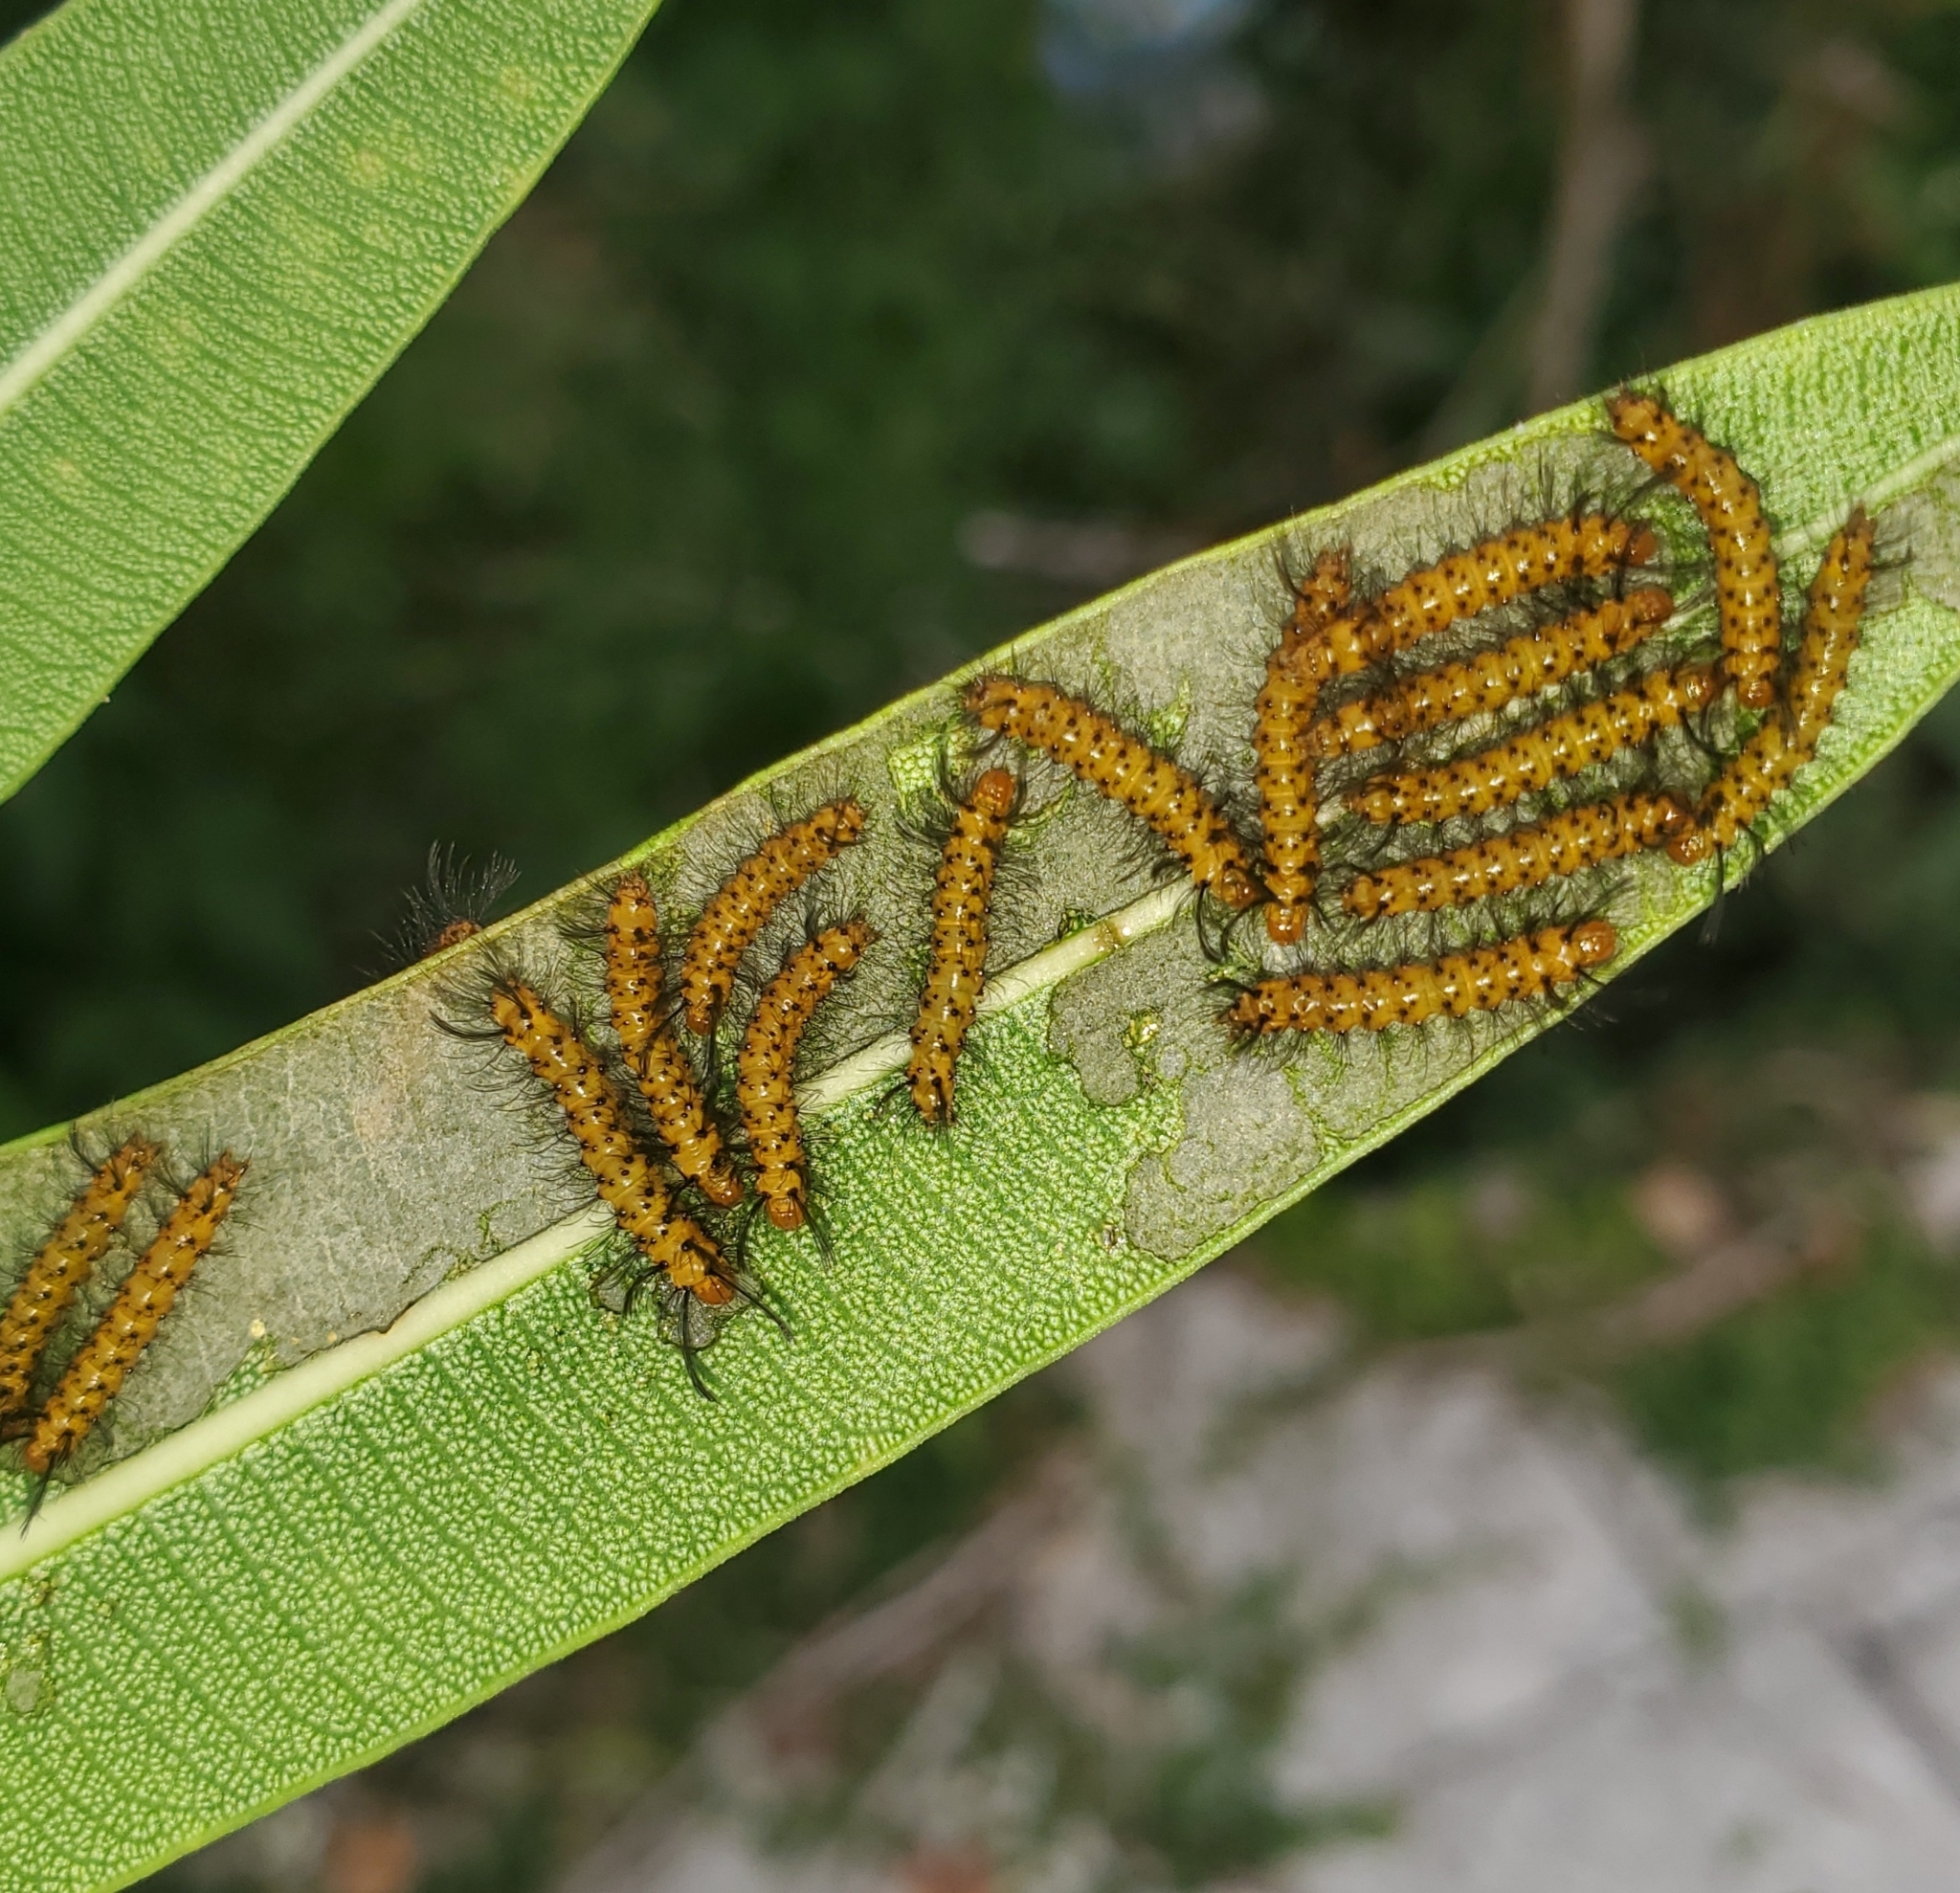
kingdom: Animalia
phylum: Arthropoda
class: Insecta
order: Lepidoptera
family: Erebidae
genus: Syntomeida
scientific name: Syntomeida epilais
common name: Polka-dot wasp moth
